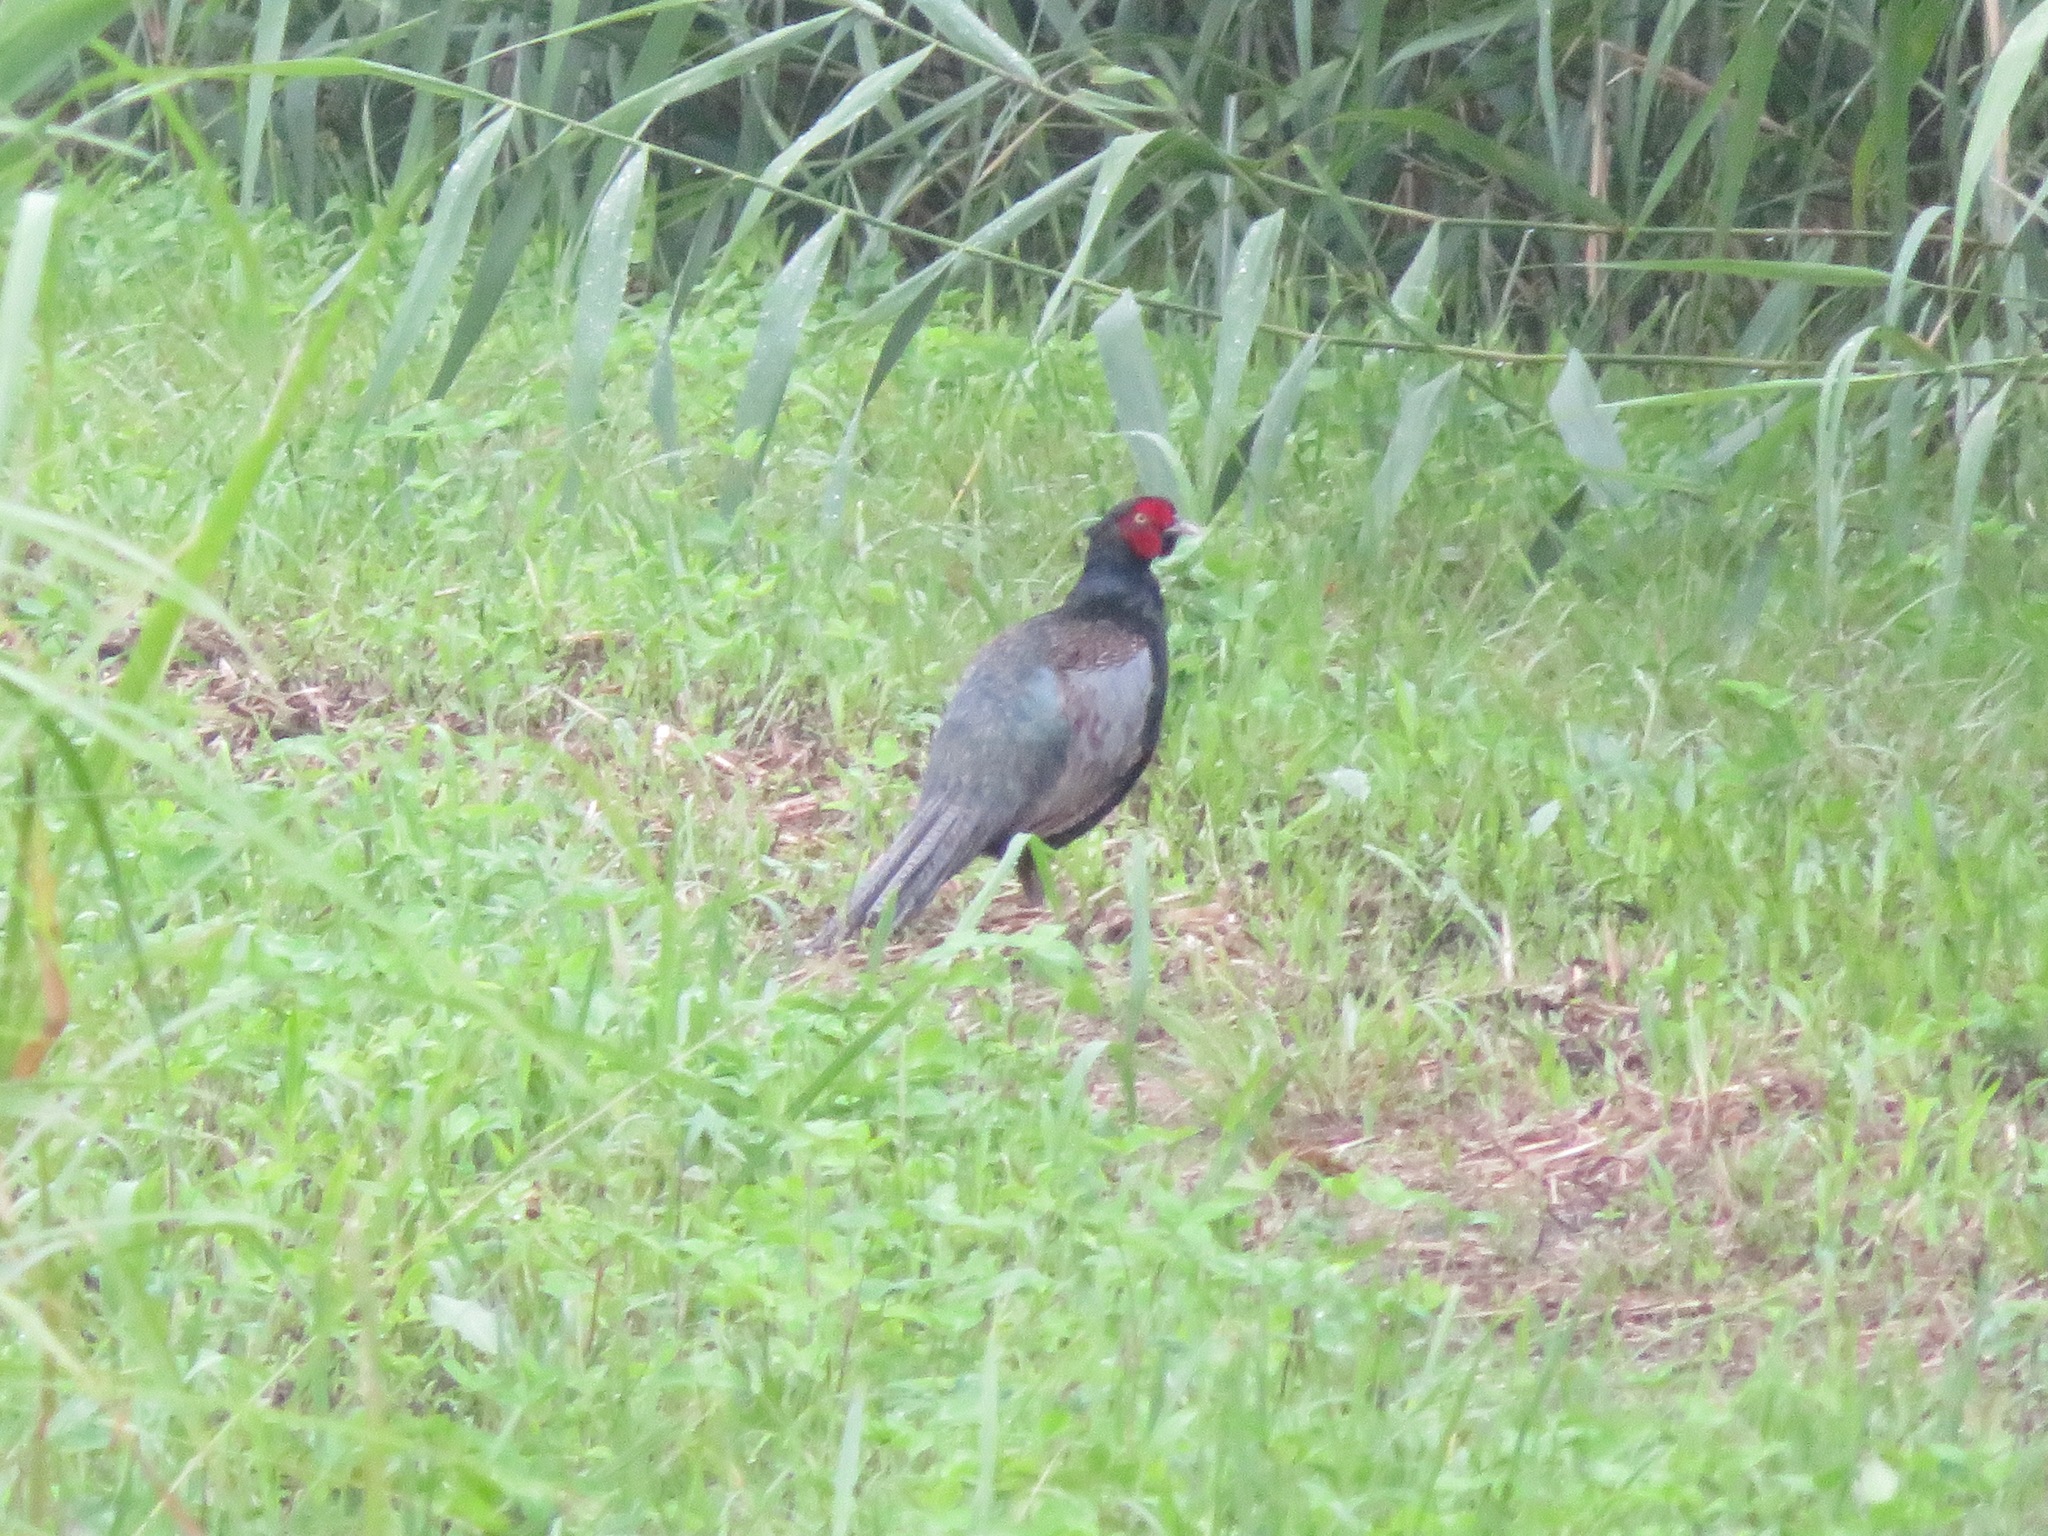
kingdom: Animalia
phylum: Chordata
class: Aves
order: Galliformes
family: Phasianidae
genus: Phasianus
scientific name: Phasianus versicolor
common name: Green pheasant
